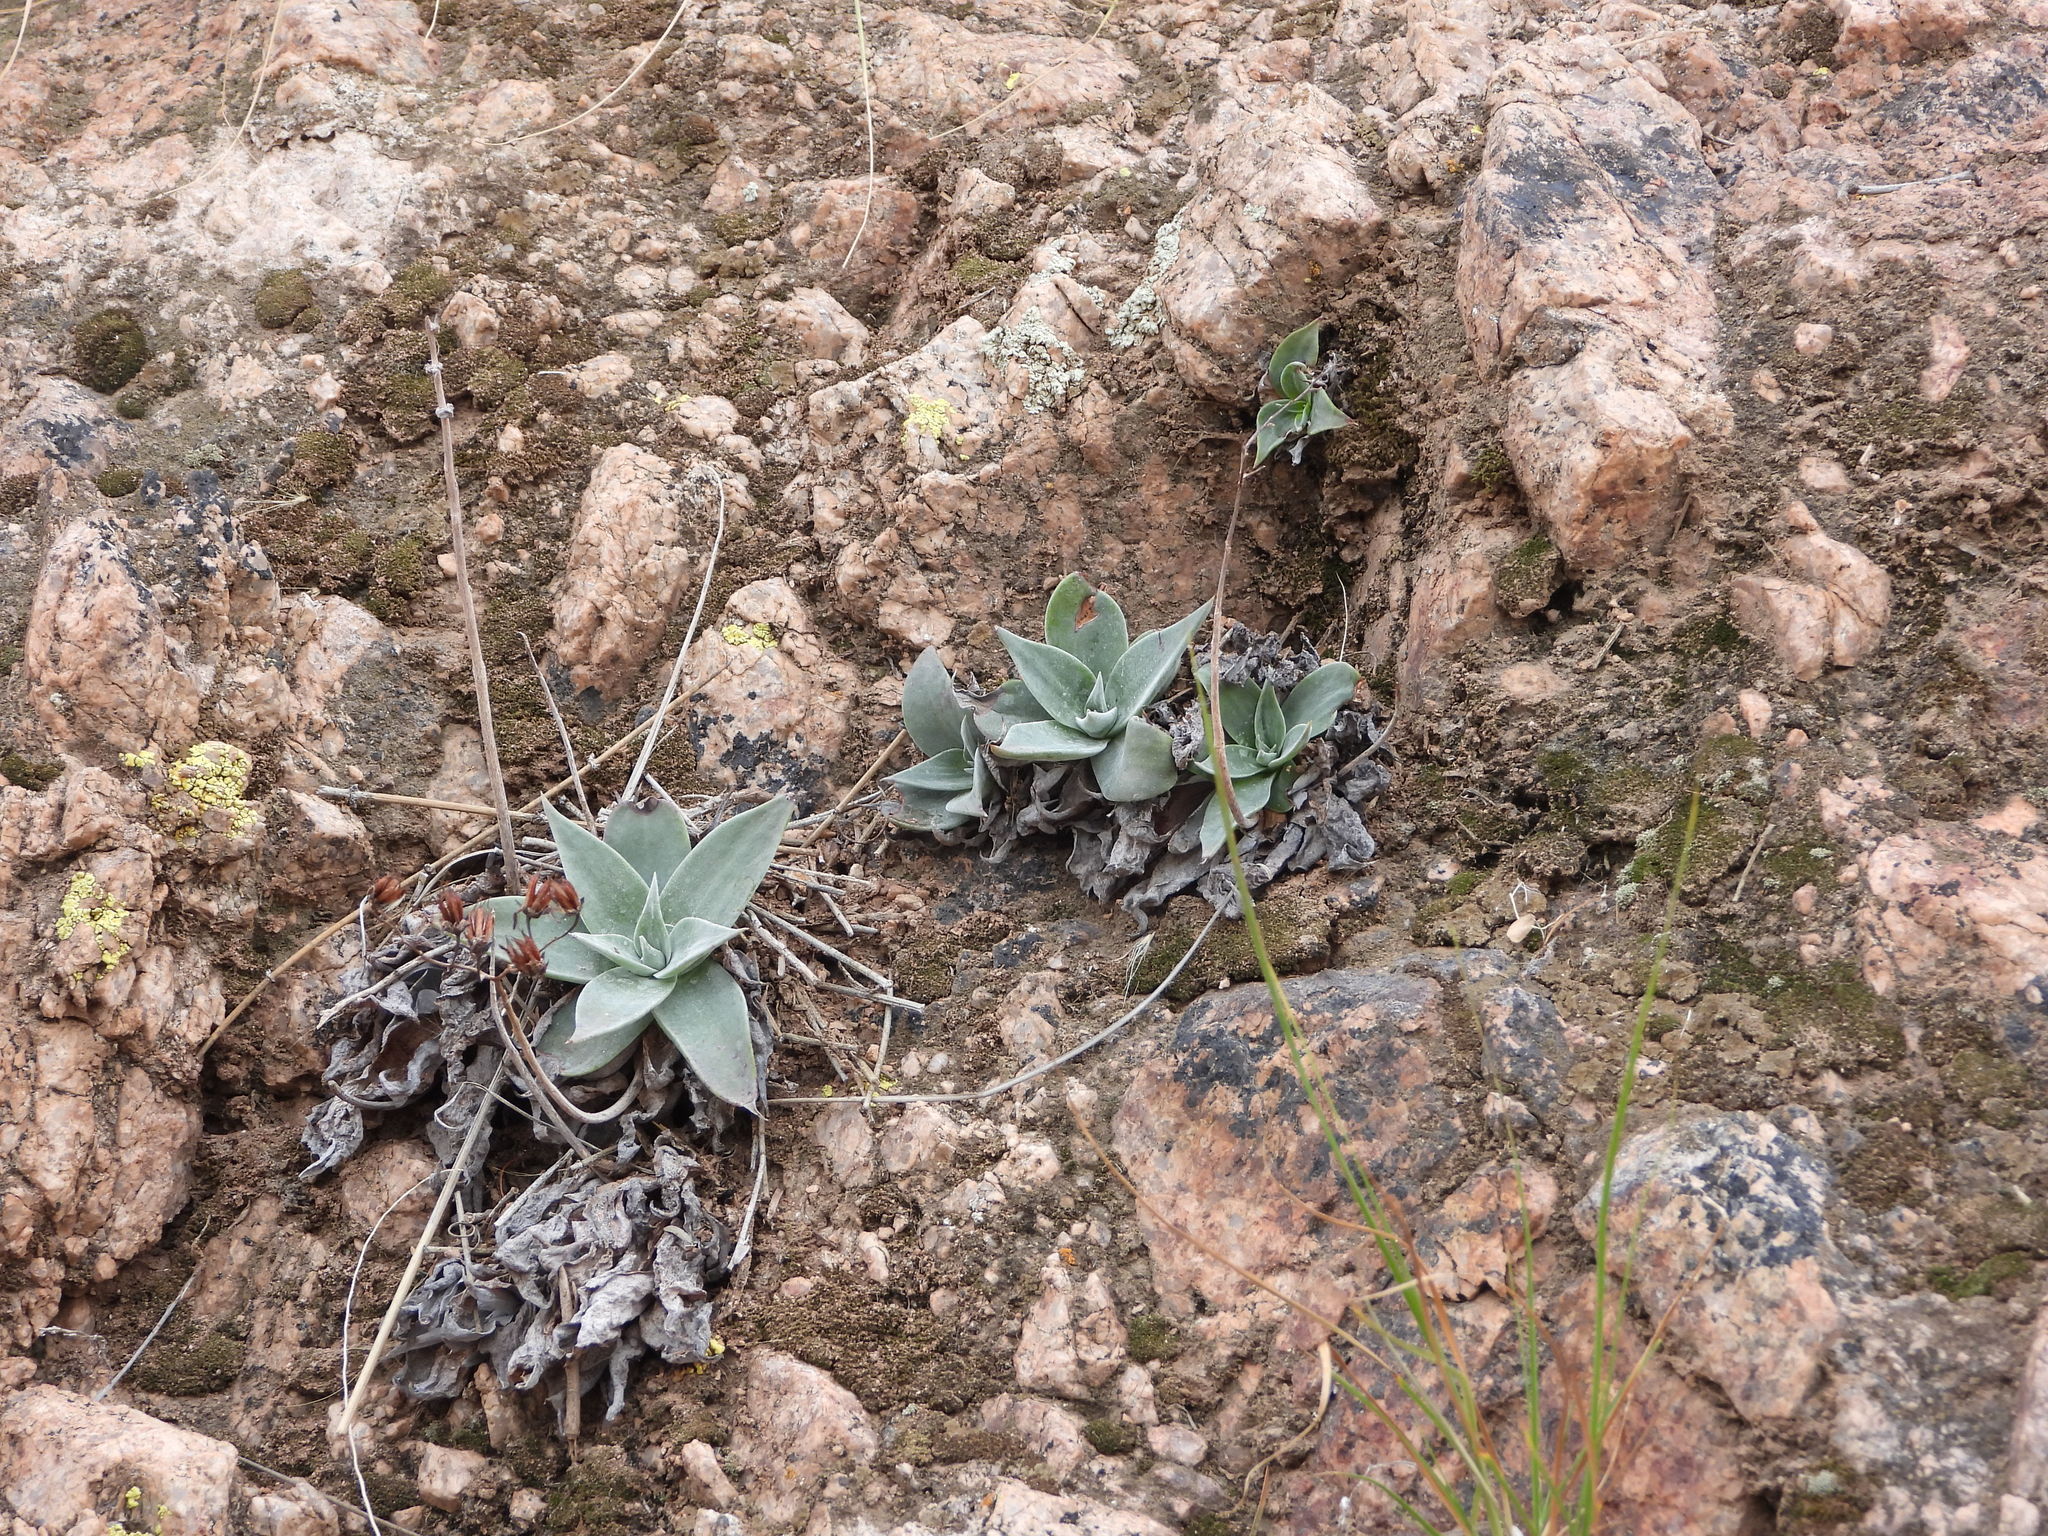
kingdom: Plantae
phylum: Tracheophyta
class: Magnoliopsida
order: Saxifragales
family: Crassulaceae
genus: Dudleya
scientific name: Dudleya arizonica
